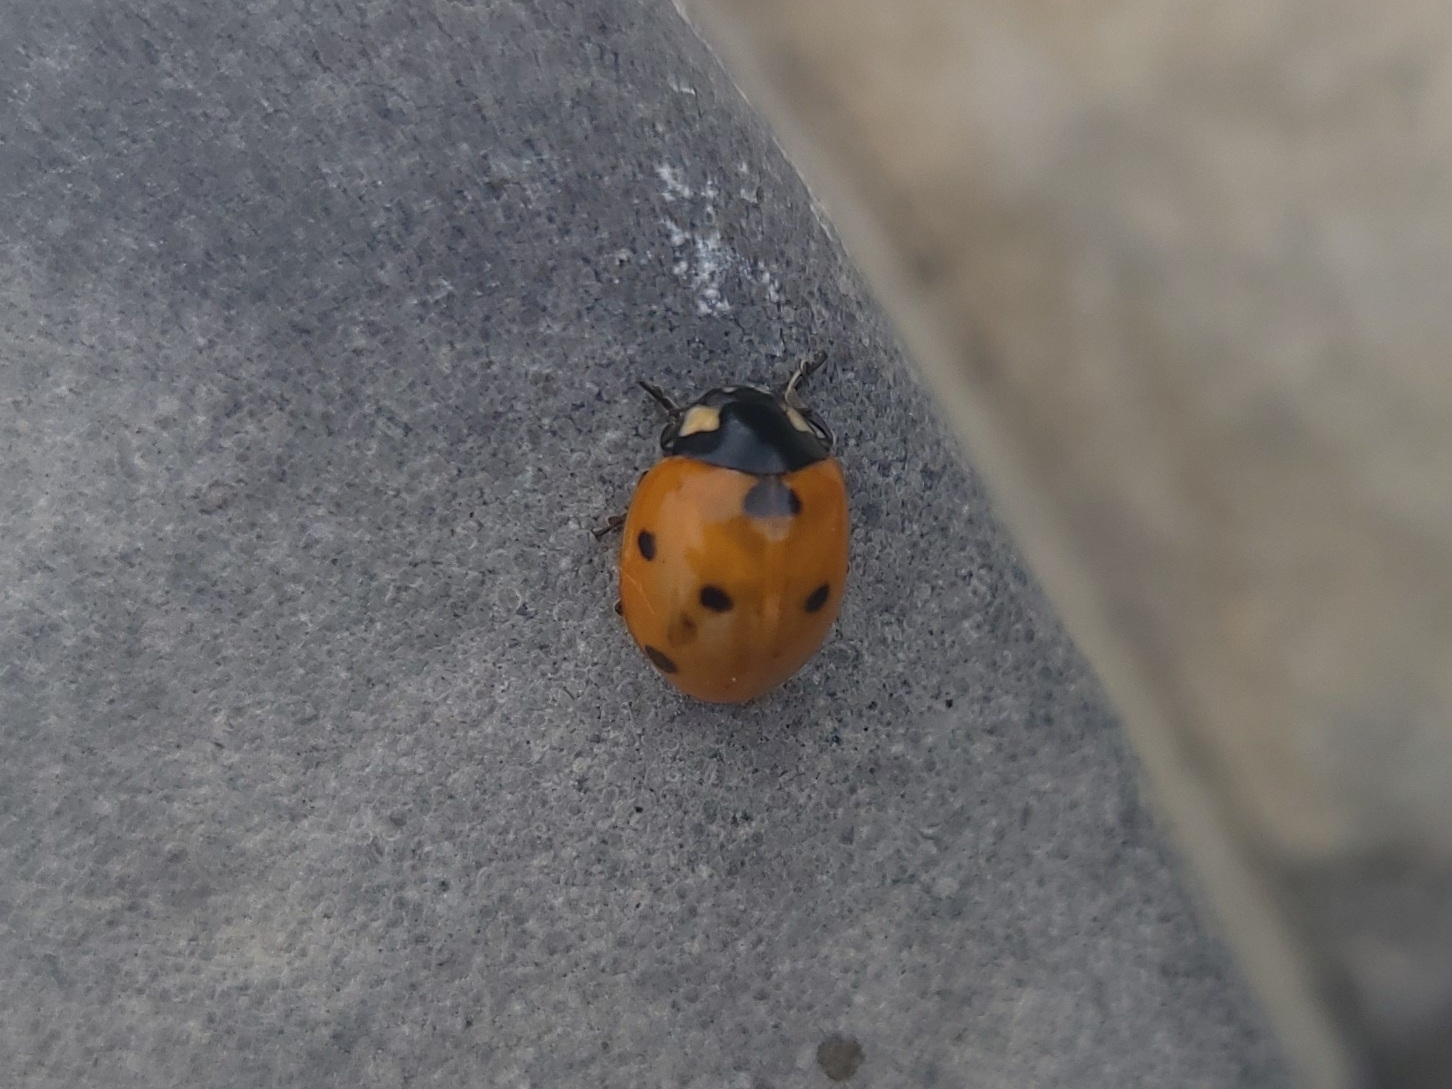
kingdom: Animalia
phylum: Arthropoda
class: Insecta
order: Coleoptera
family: Coccinellidae
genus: Coccinella
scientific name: Coccinella septempunctata
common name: Sevenspotted lady beetle
